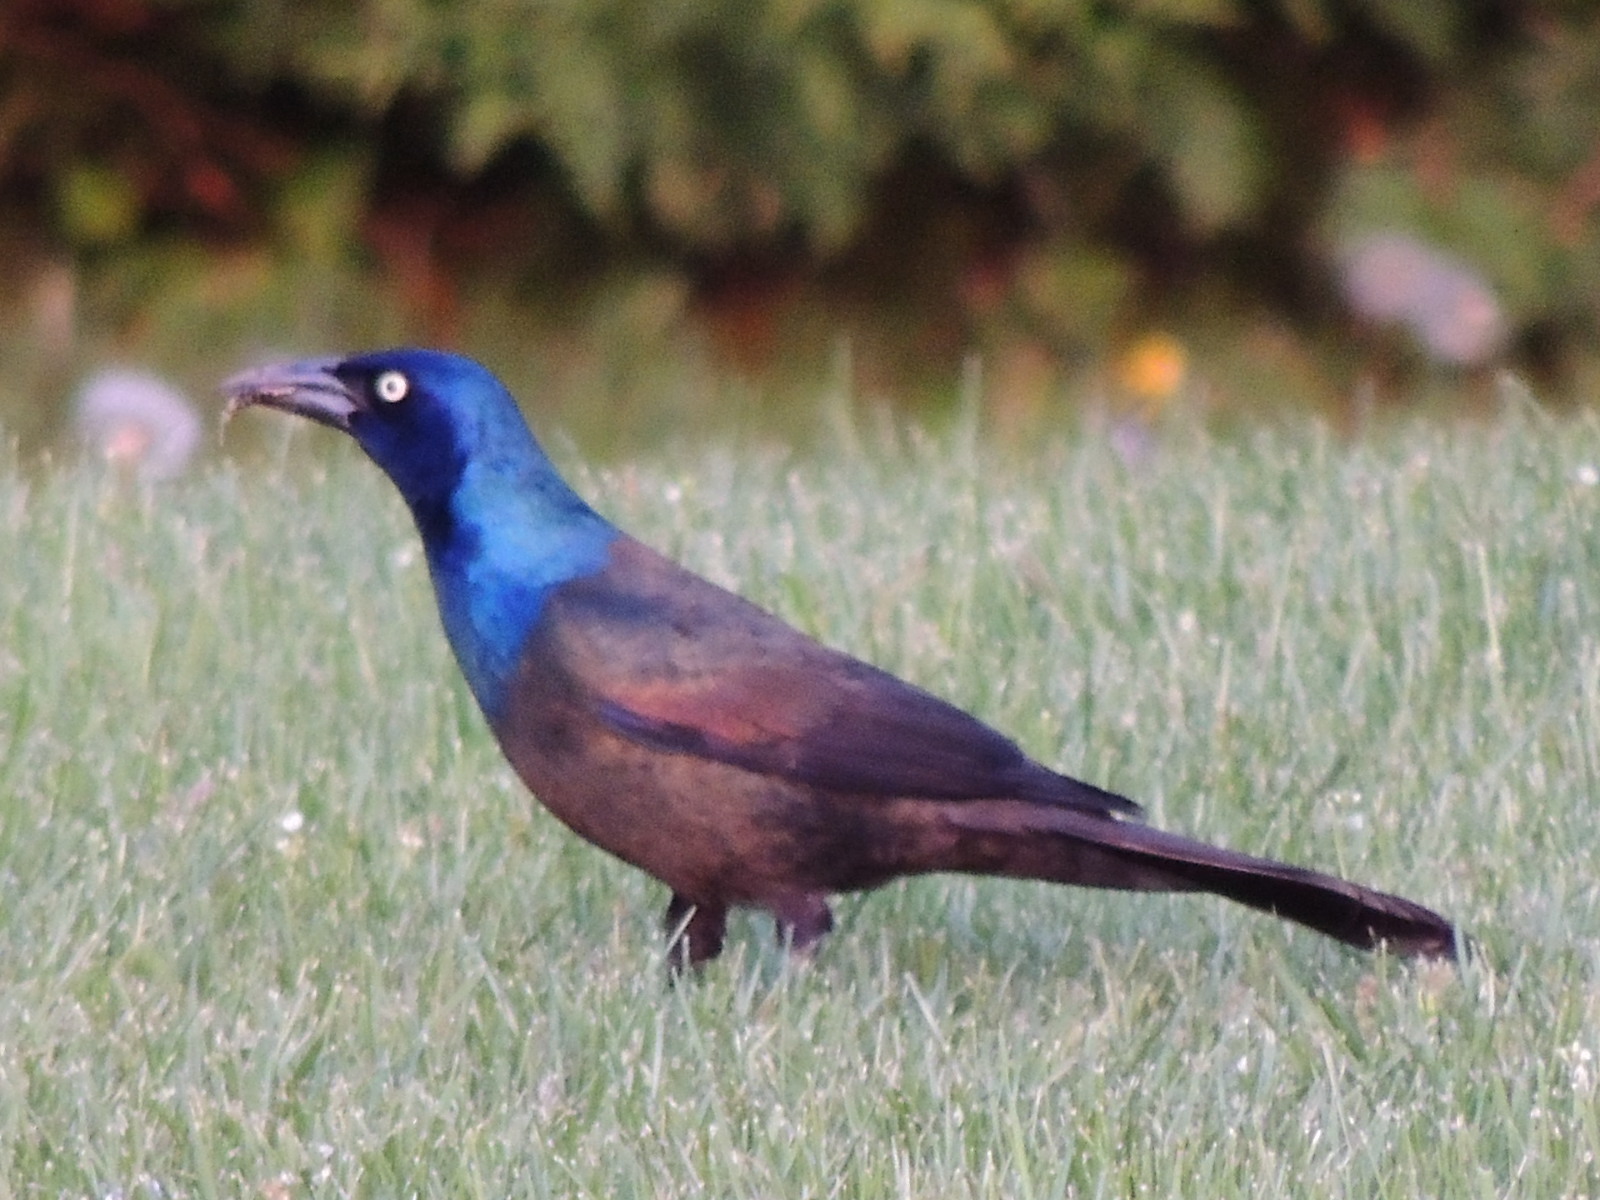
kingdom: Animalia
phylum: Chordata
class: Aves
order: Passeriformes
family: Icteridae
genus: Quiscalus
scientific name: Quiscalus quiscula
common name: Common grackle
